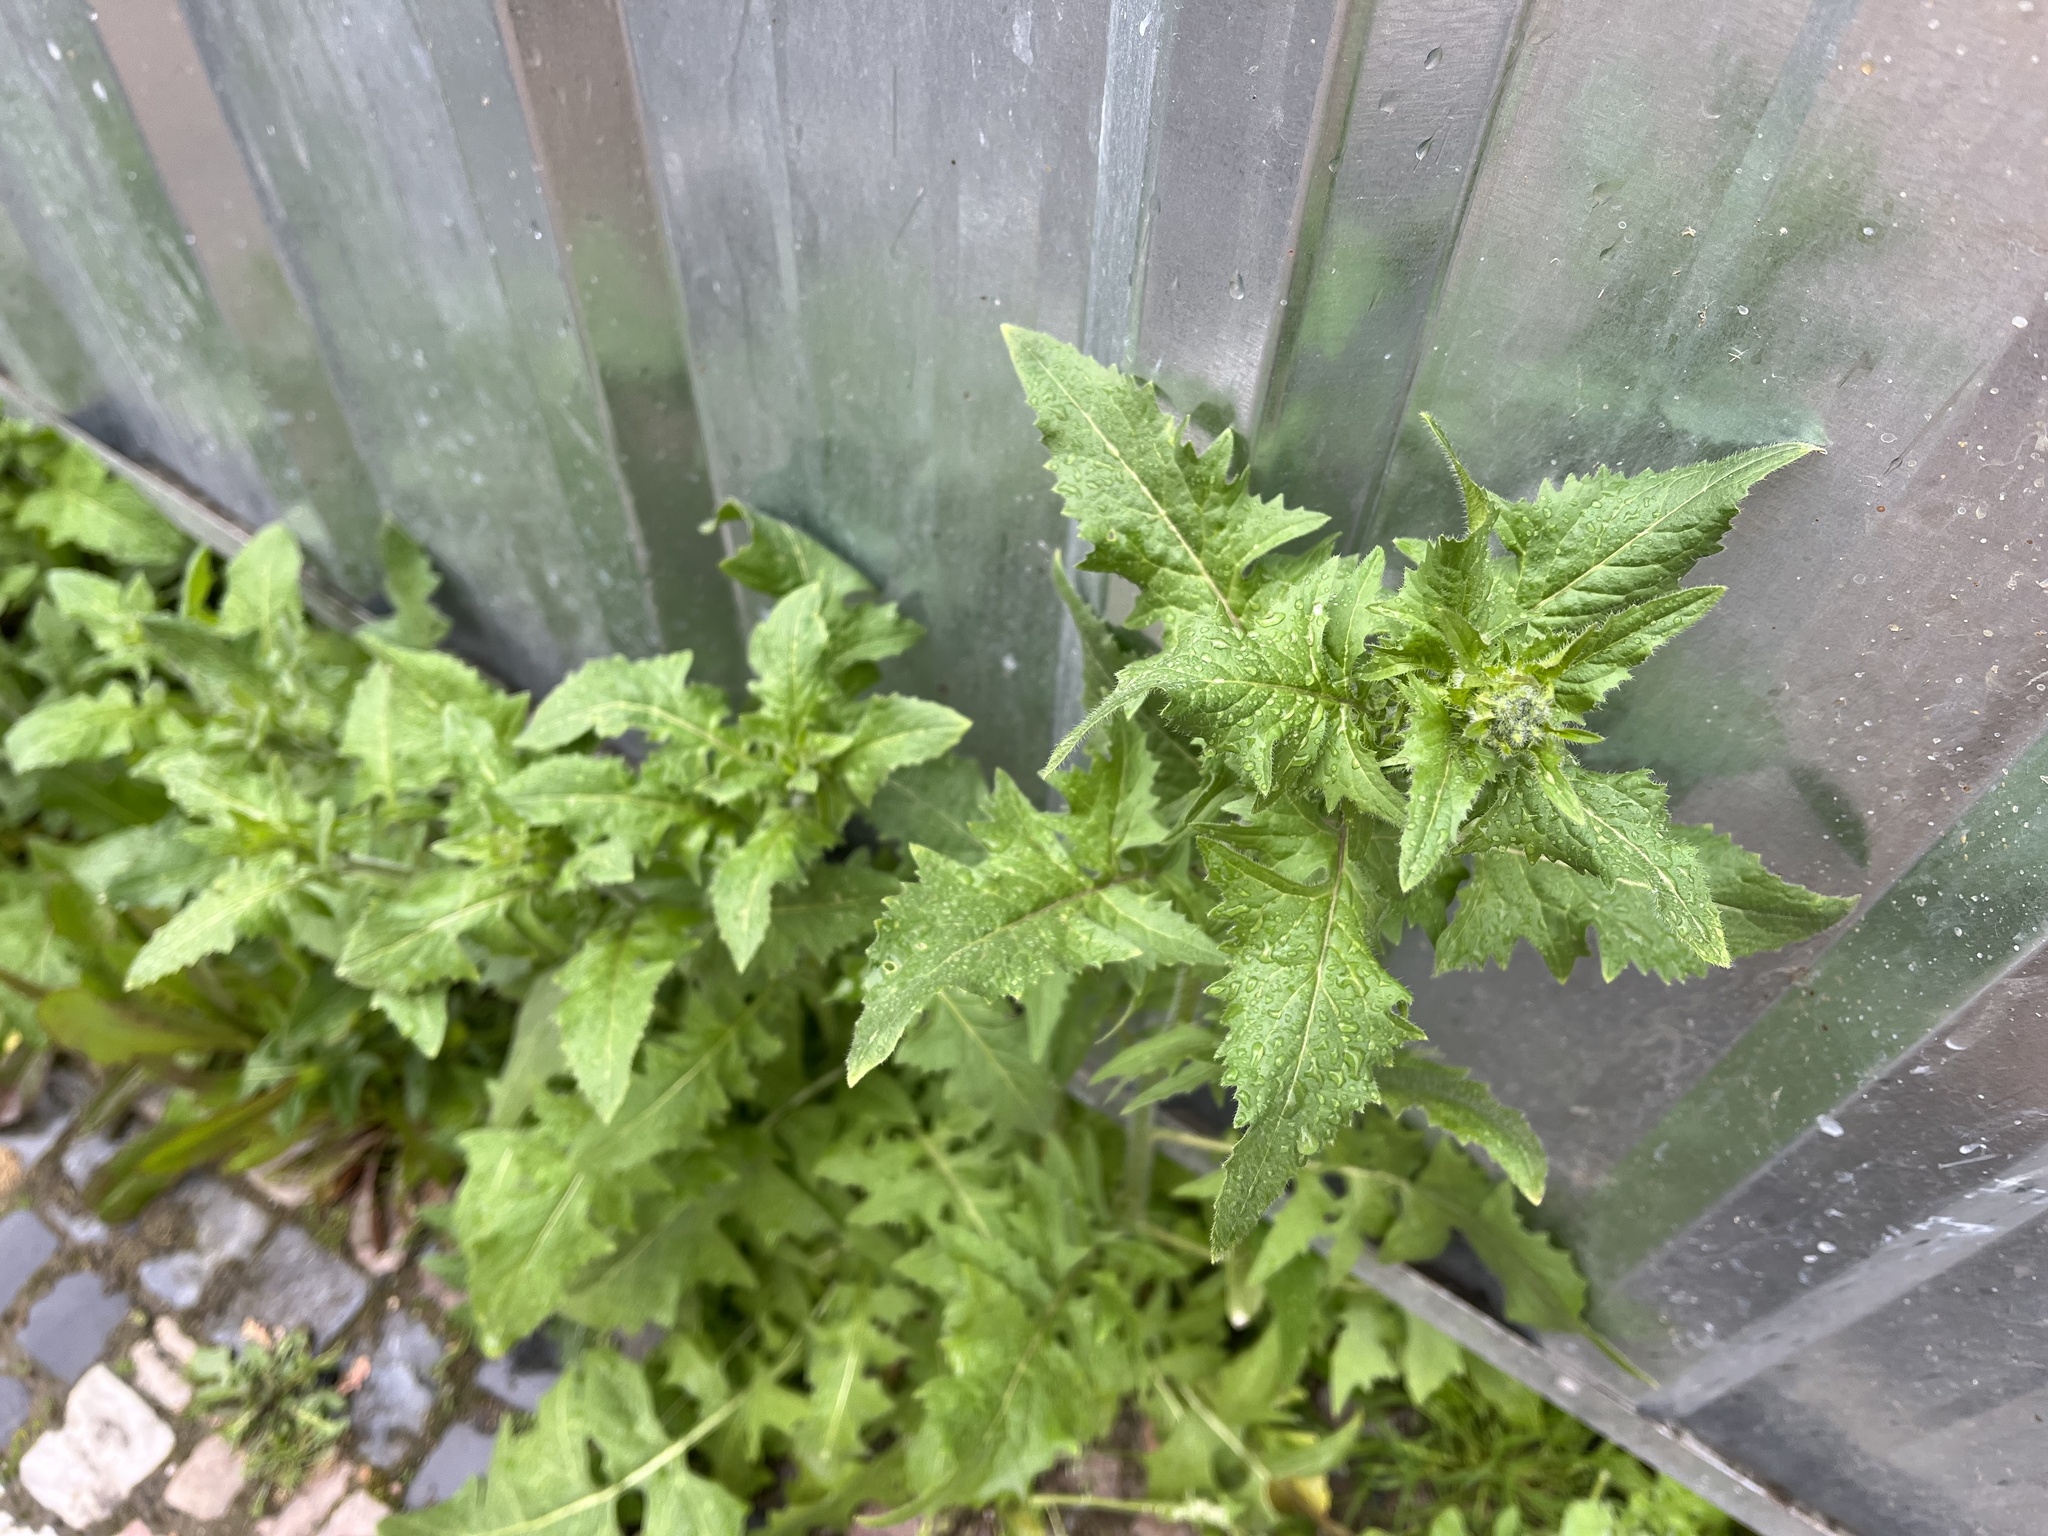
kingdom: Plantae
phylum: Tracheophyta
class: Magnoliopsida
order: Brassicales
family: Brassicaceae
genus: Sisymbrium
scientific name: Sisymbrium loeselii
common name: False london-rocket
